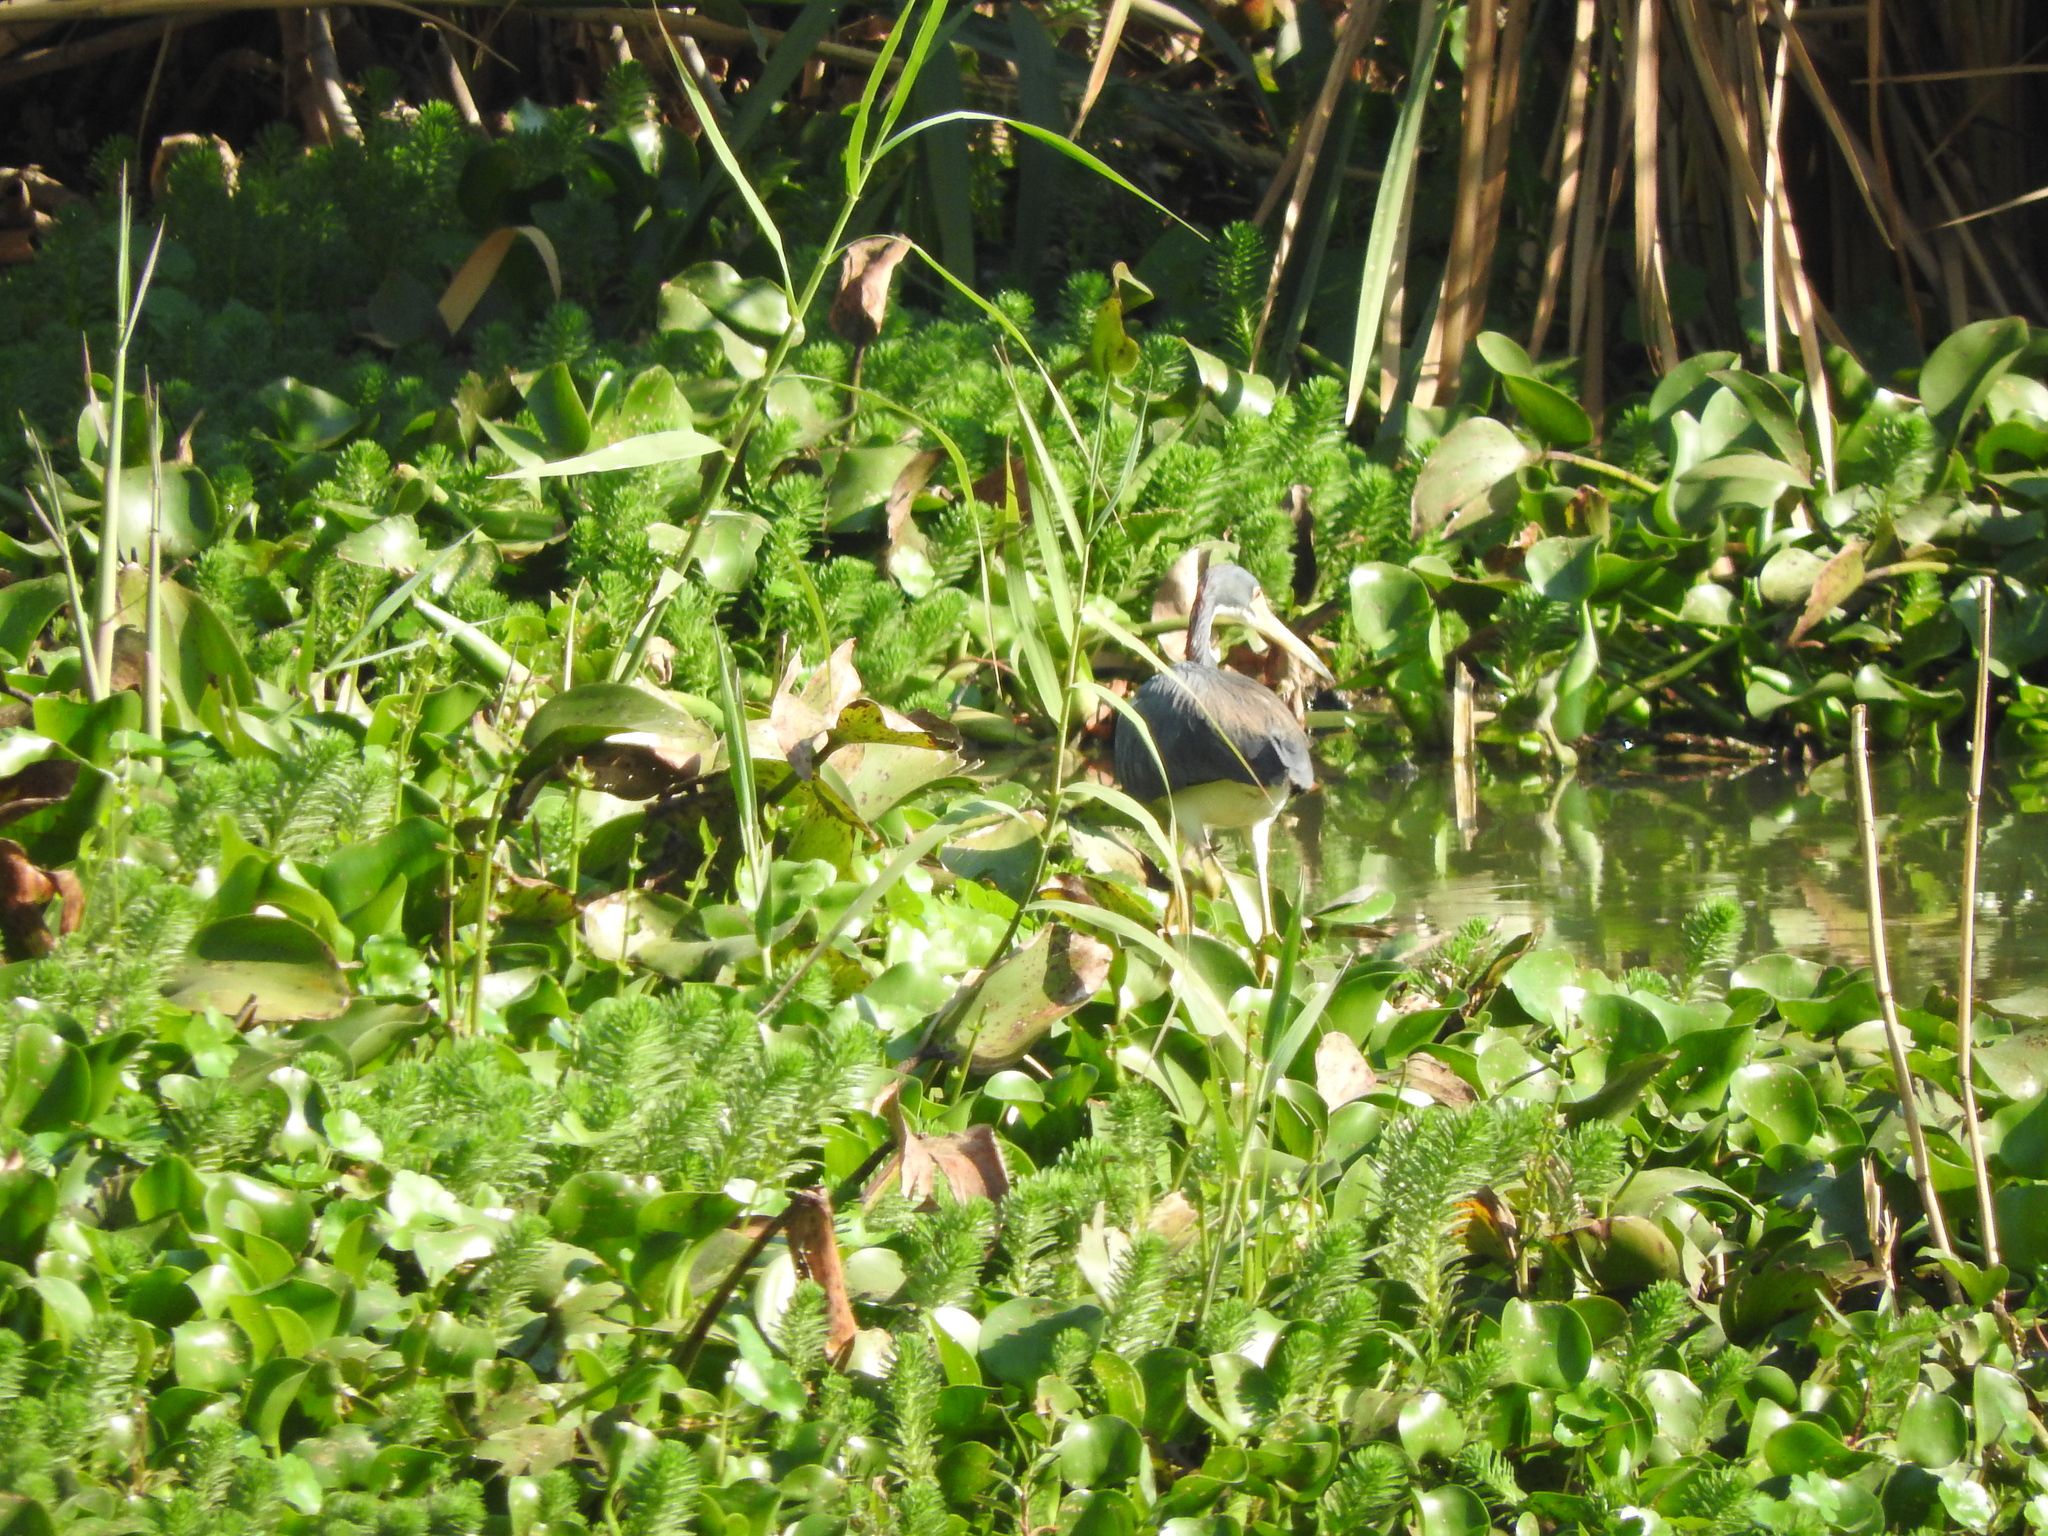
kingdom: Animalia
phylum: Chordata
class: Aves
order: Pelecaniformes
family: Ardeidae
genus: Egretta
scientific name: Egretta tricolor
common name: Tricolored heron
